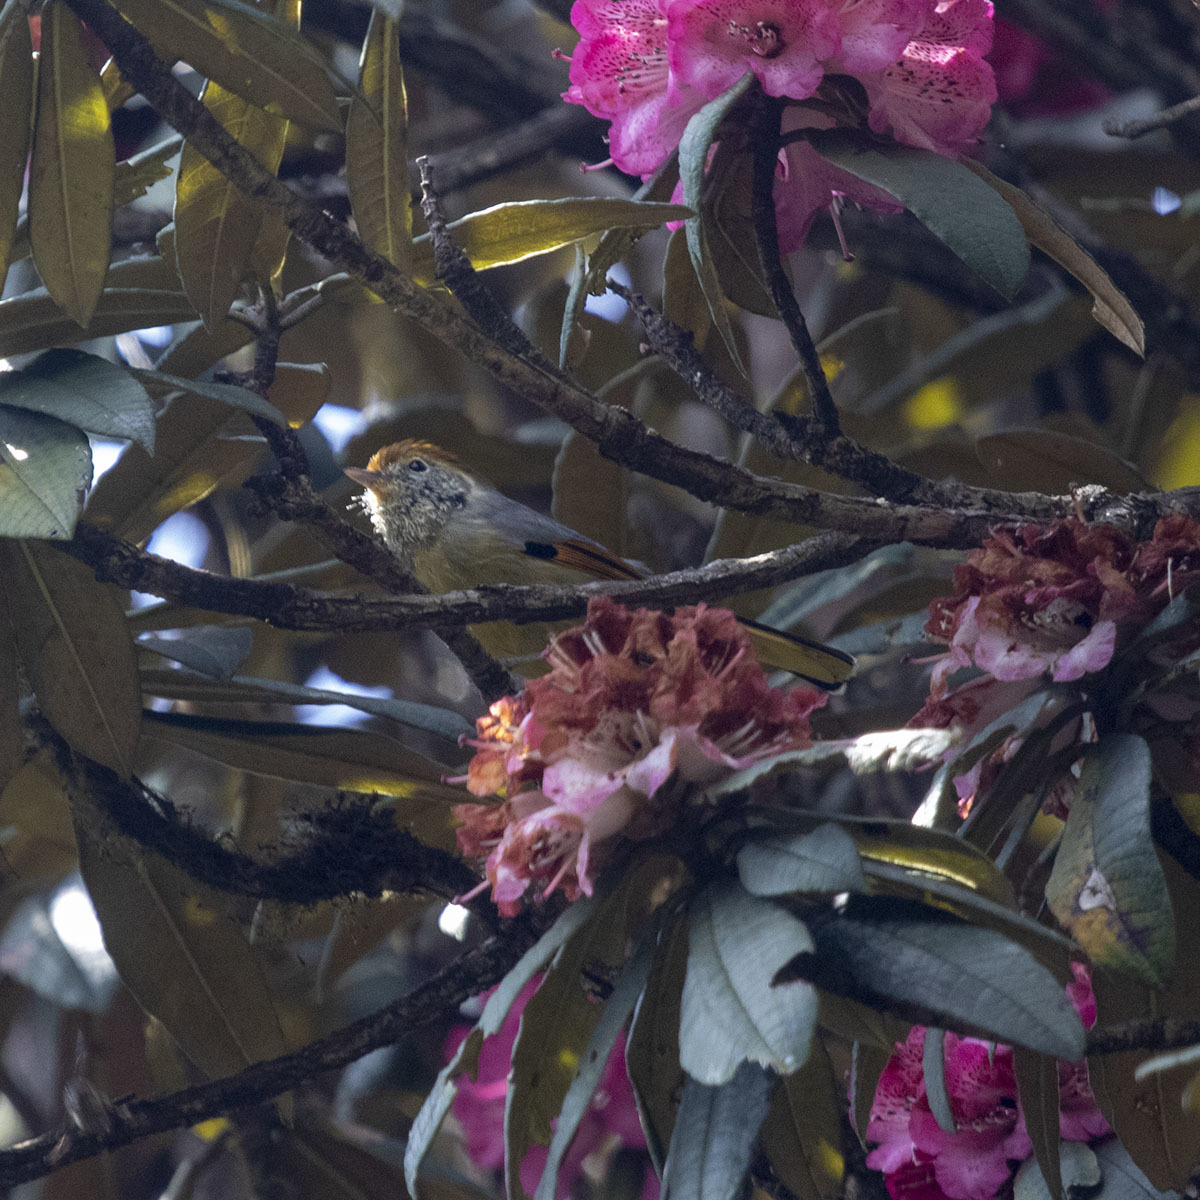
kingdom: Animalia
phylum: Chordata
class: Aves
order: Passeriformes
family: Leiothrichidae
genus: Minla
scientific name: Minla strigula
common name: Chestnut-tailed minla
